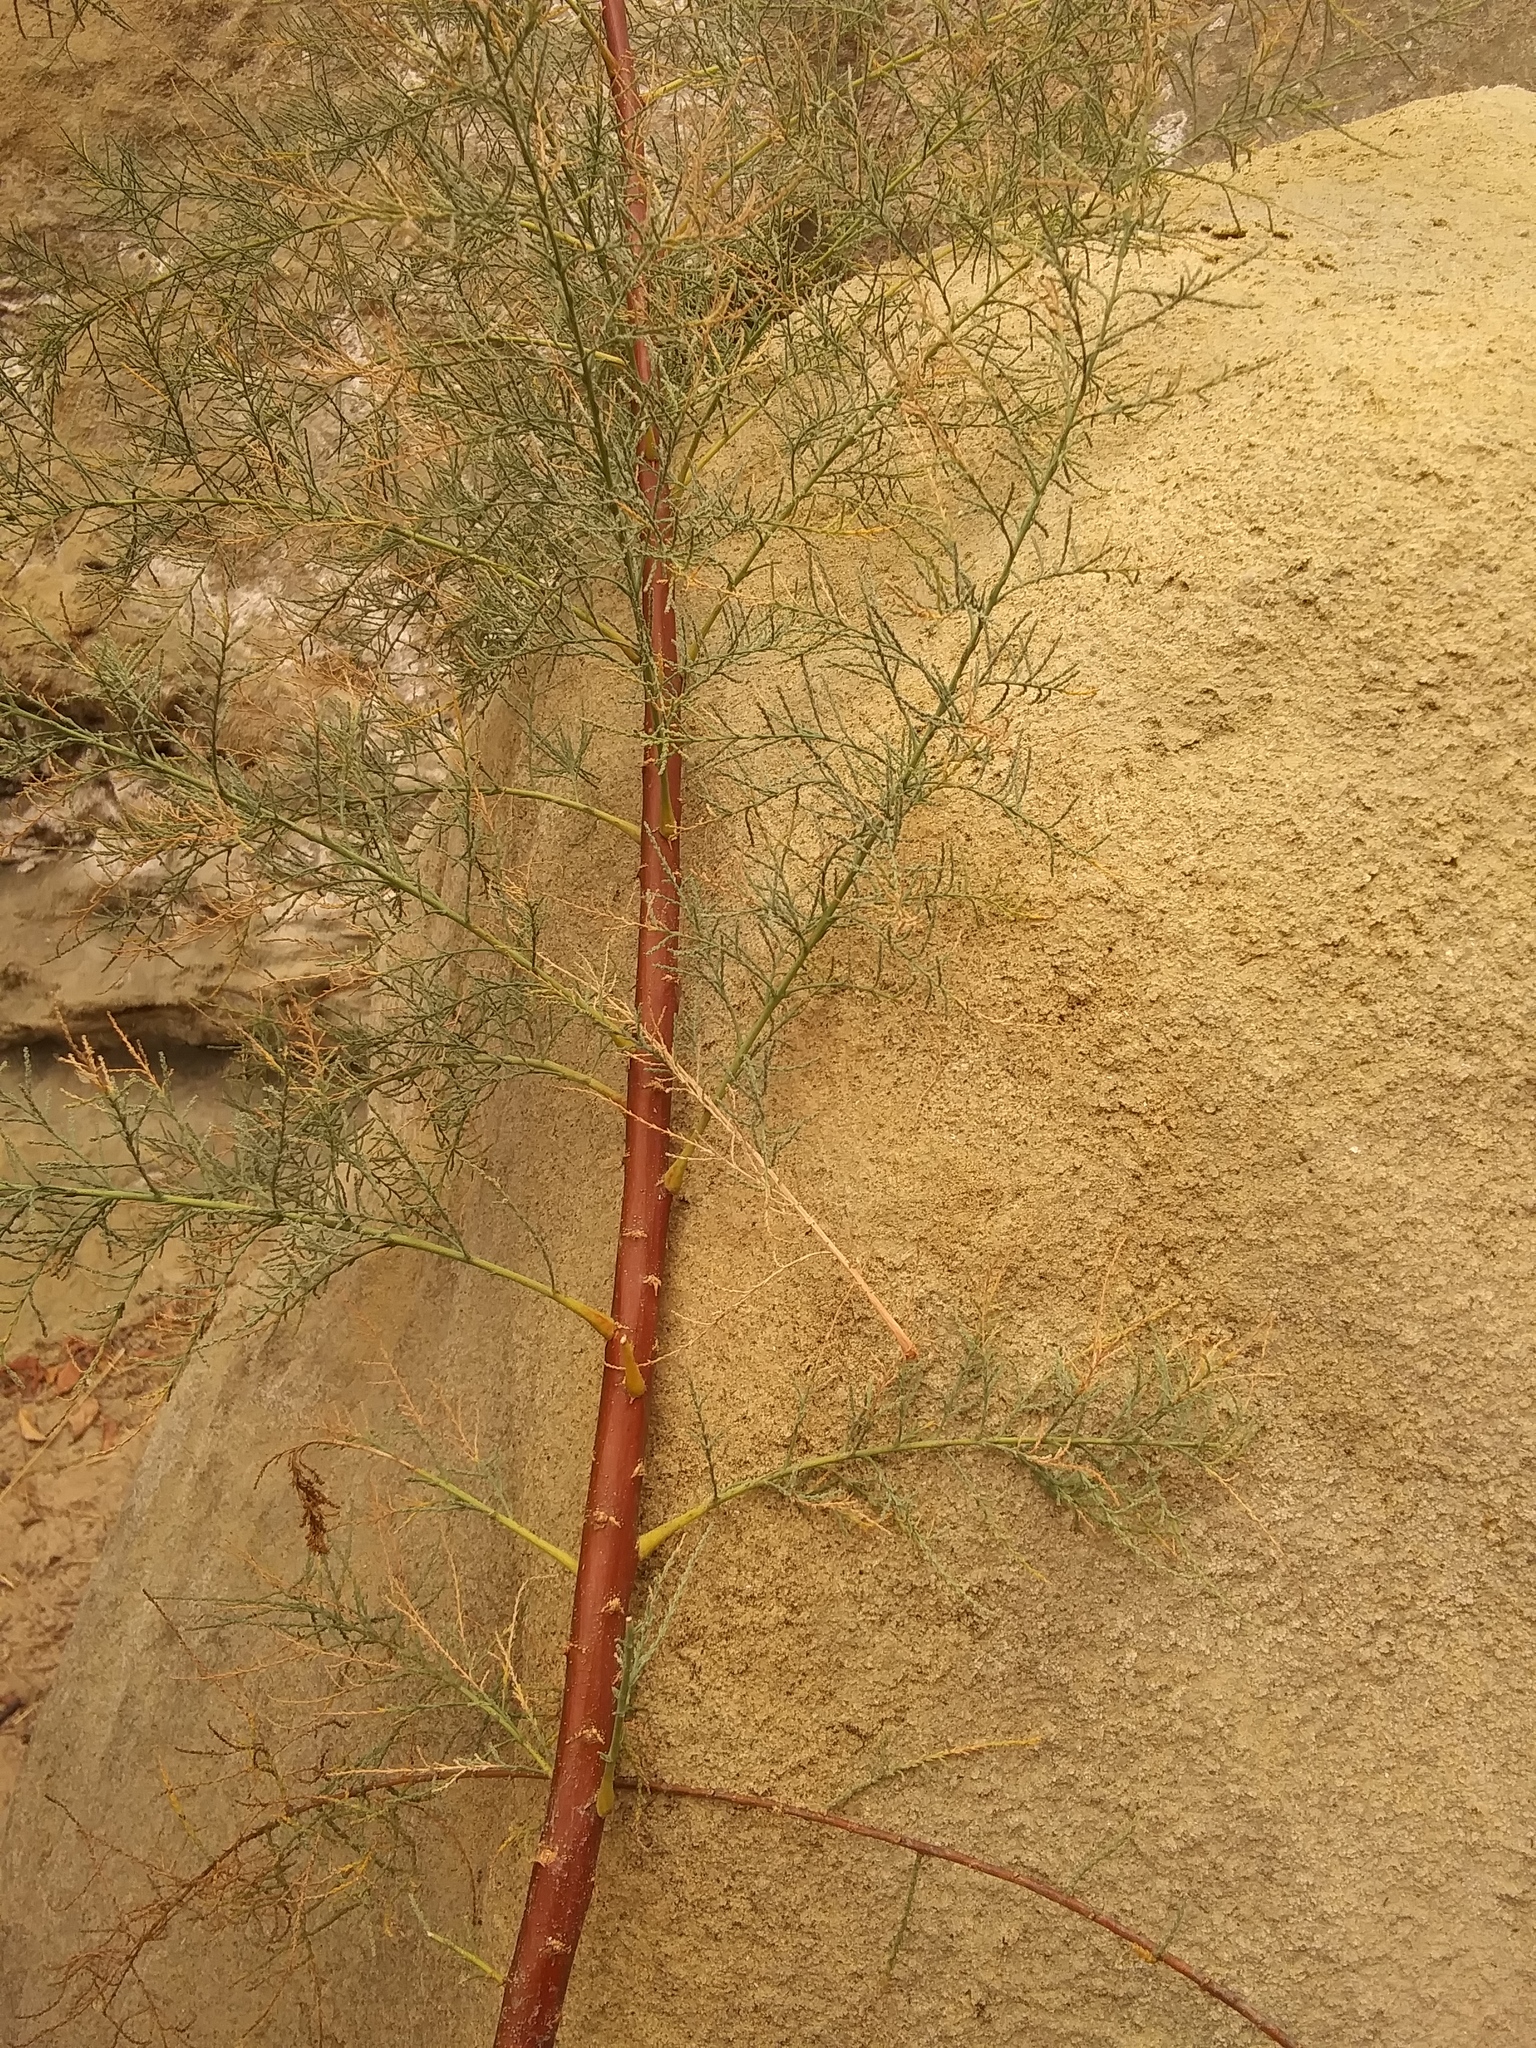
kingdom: Plantae
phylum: Tracheophyta
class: Magnoliopsida
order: Caryophyllales
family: Tamaricaceae
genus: Tamarix
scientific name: Tamarix
